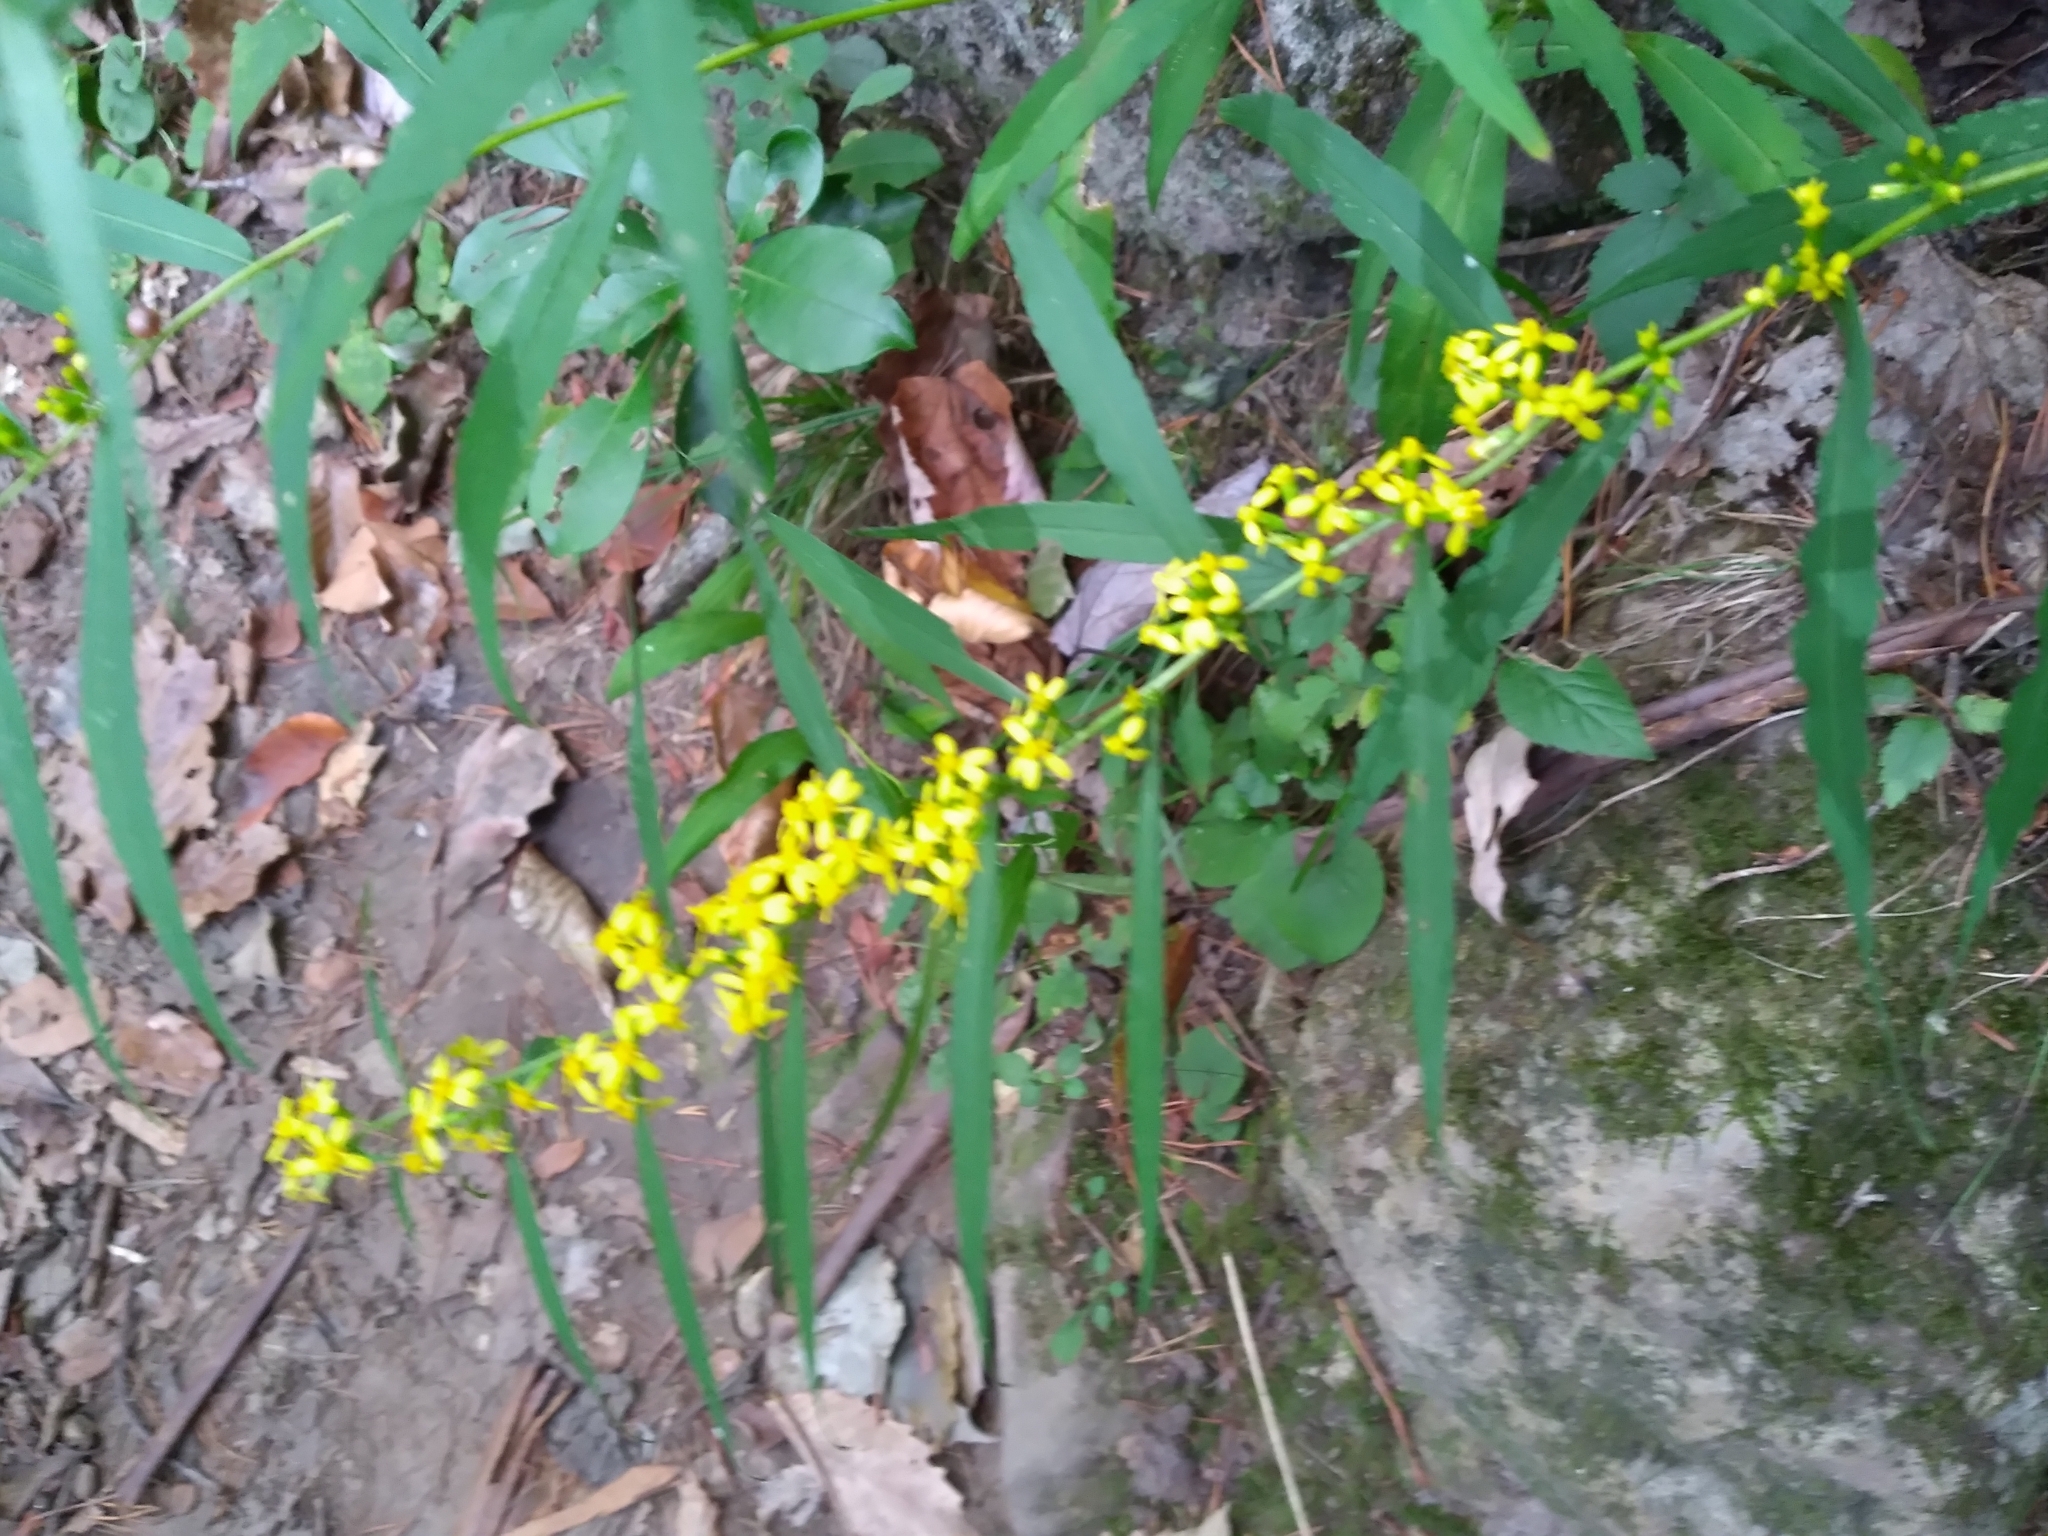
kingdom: Plantae
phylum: Tracheophyta
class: Magnoliopsida
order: Asterales
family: Asteraceae
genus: Solidago
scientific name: Solidago caesia
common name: Woodland goldenrod
